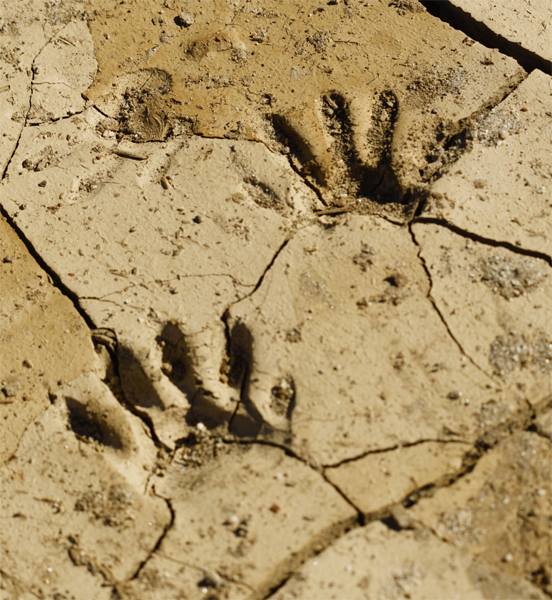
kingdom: Animalia
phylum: Chordata
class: Mammalia
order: Carnivora
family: Procyonidae
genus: Procyon
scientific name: Procyon lotor
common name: Raccoon
